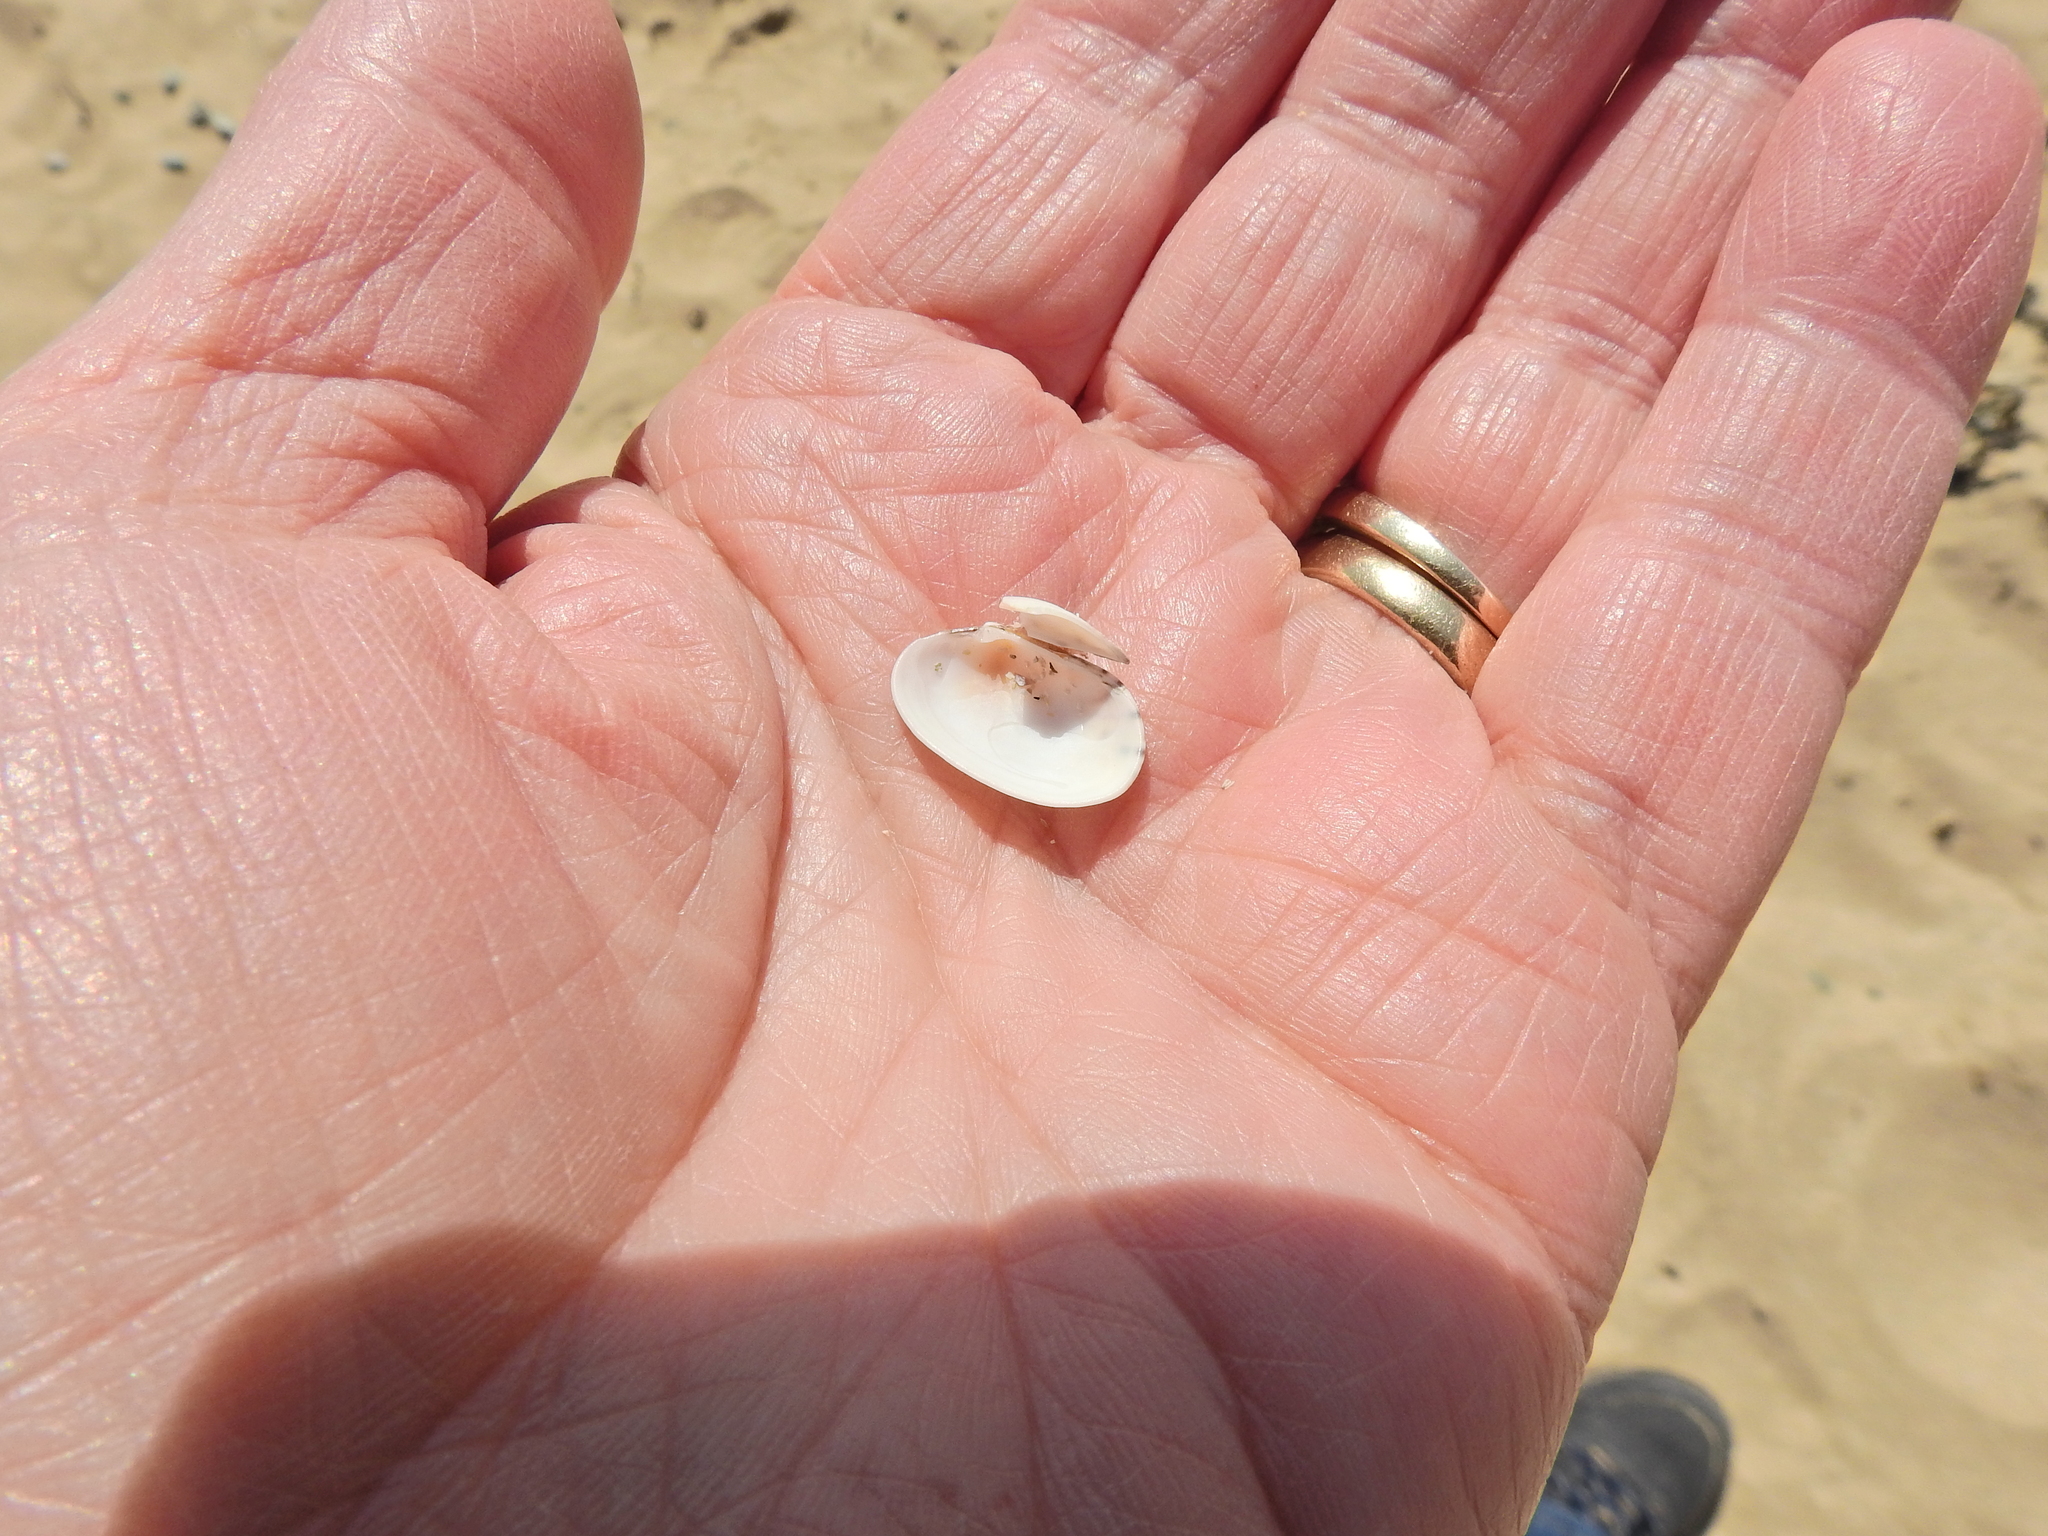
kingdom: Animalia
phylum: Mollusca
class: Bivalvia
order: Venerida
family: Veneridae
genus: Venerupis
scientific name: Venerupis corrugata
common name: Pullet carpet shell
